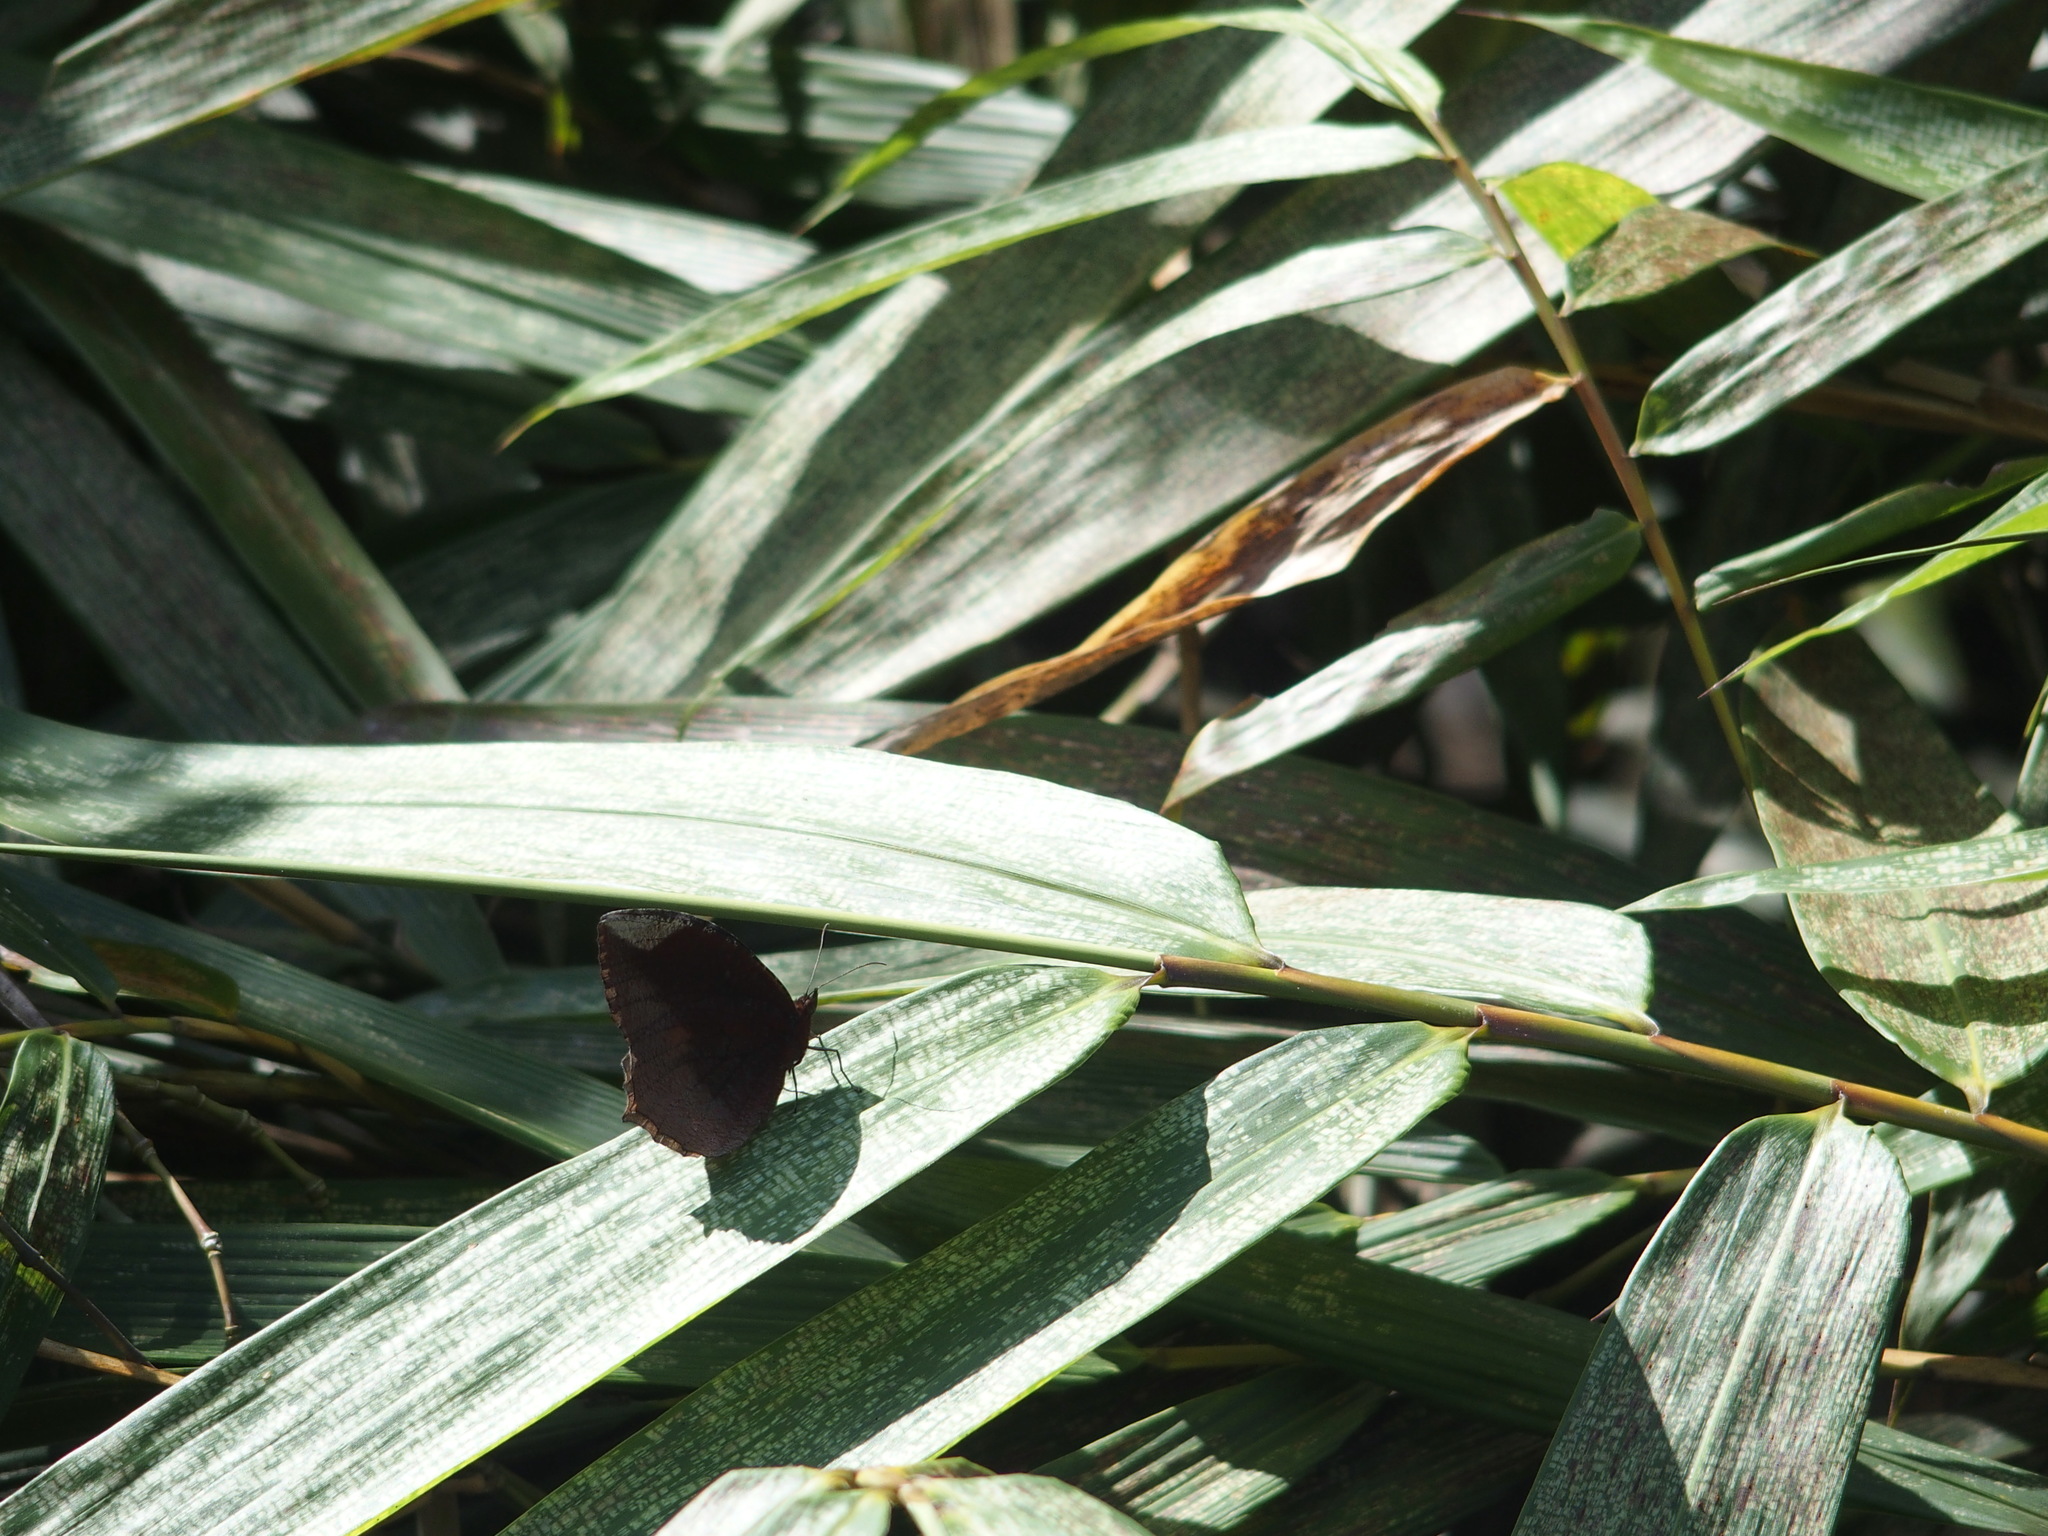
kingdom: Animalia
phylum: Arthropoda
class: Insecta
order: Lepidoptera
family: Nymphalidae
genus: Elymnias
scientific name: Elymnias hypermnestra
